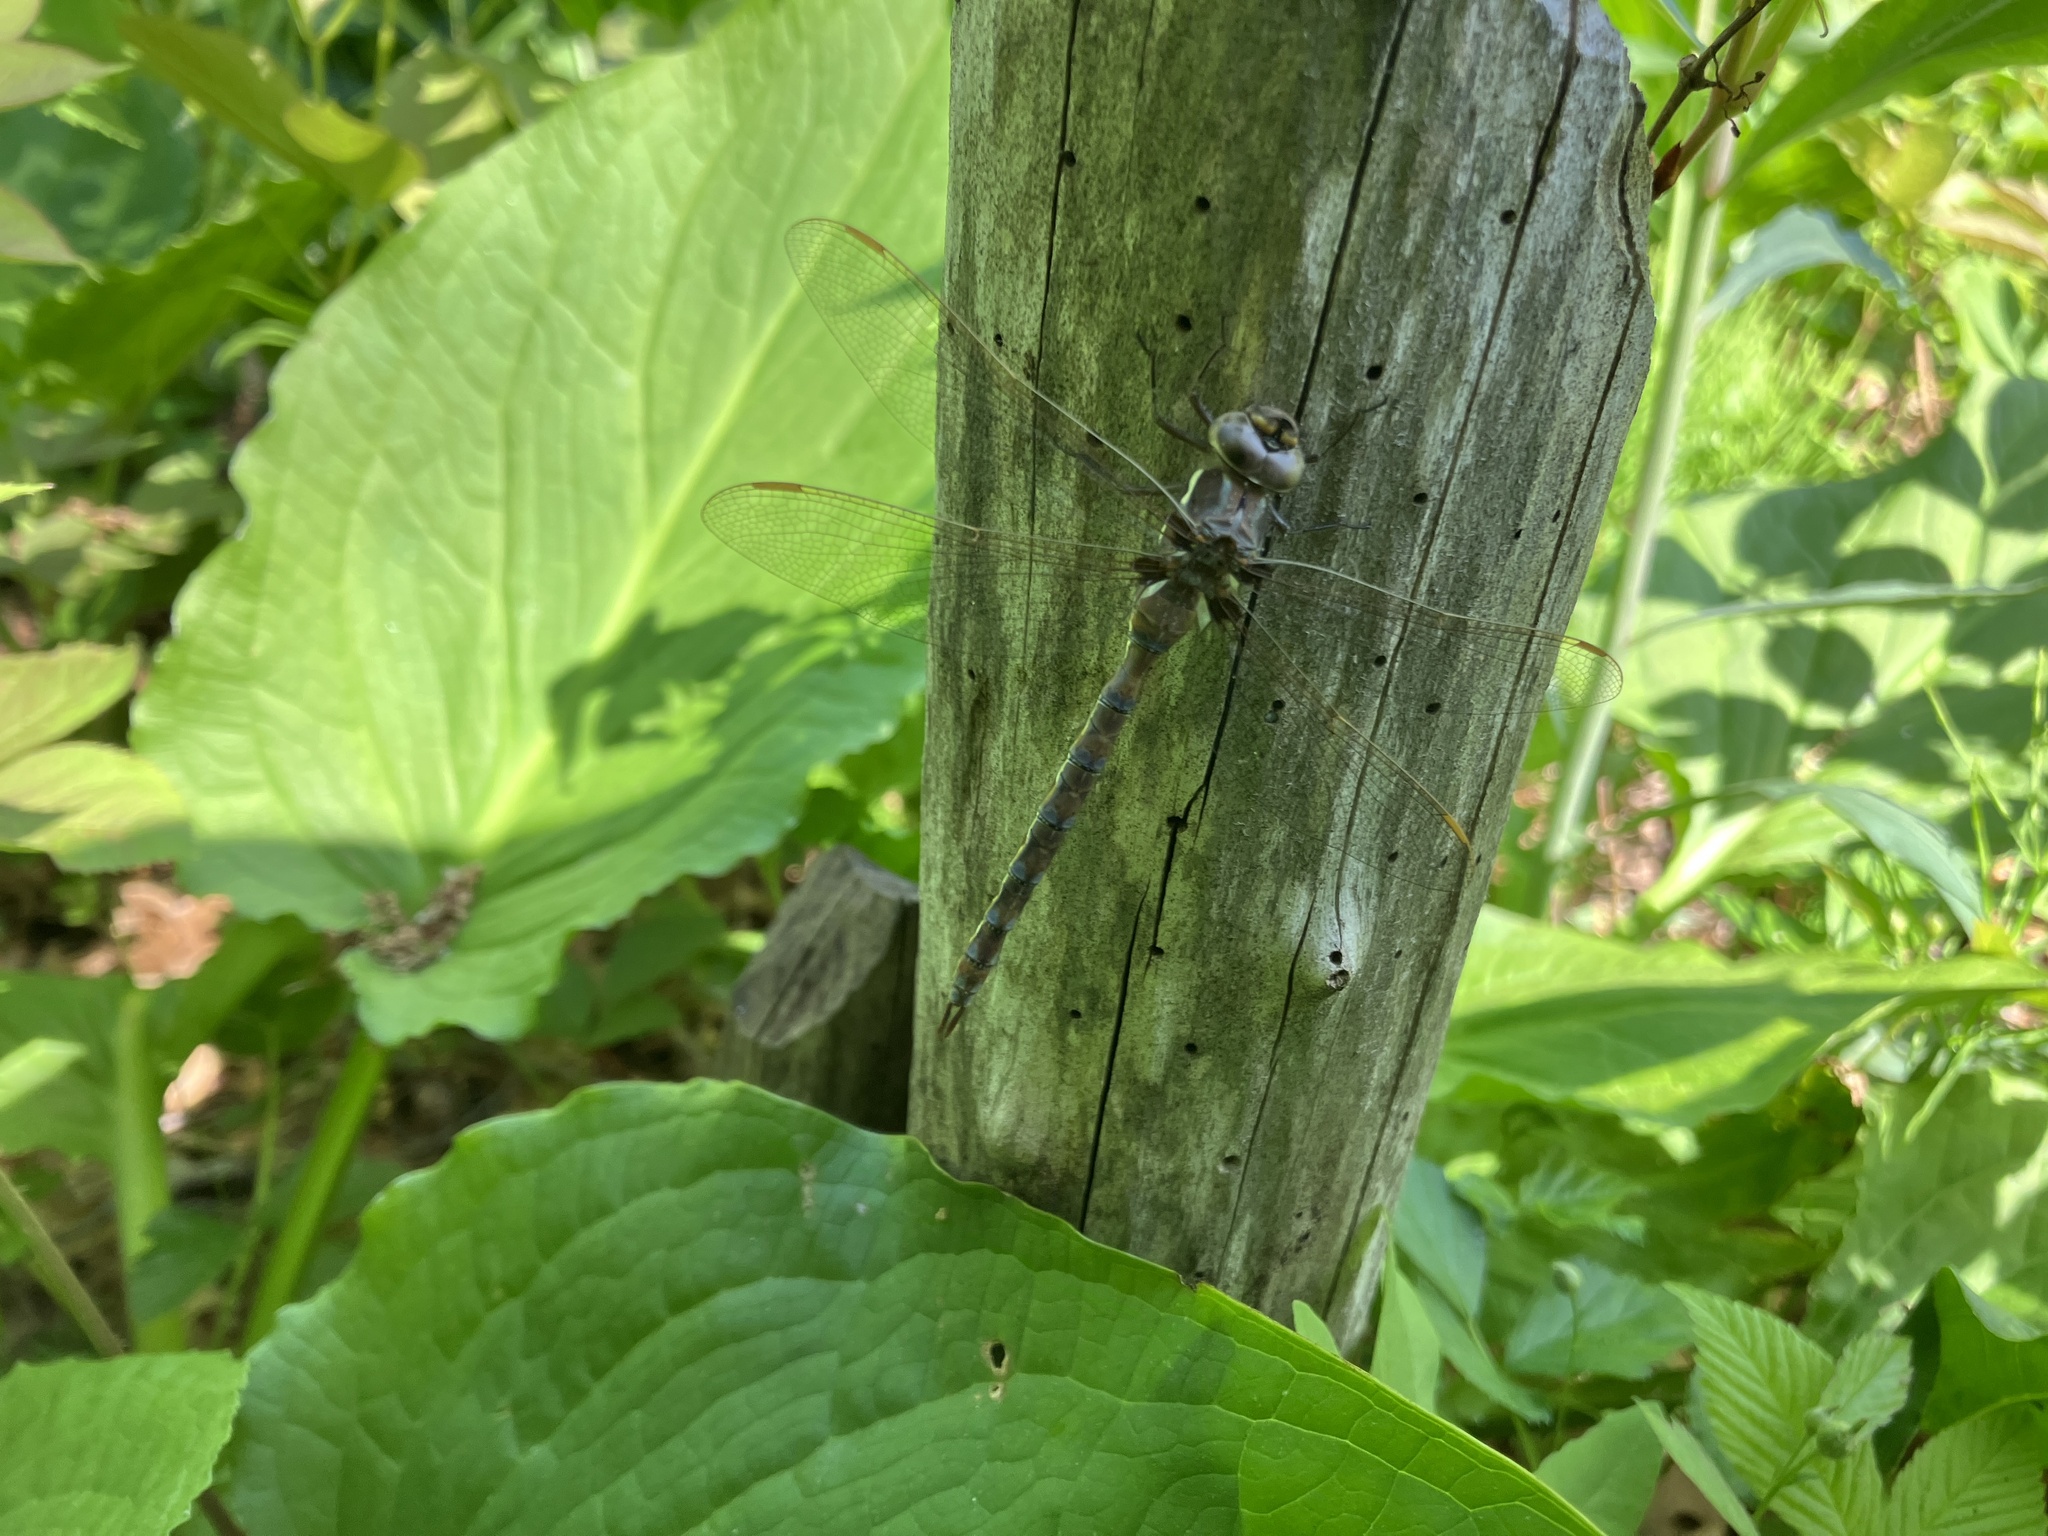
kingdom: Animalia
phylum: Arthropoda
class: Insecta
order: Odonata
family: Aeshnidae
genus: Basiaeschna
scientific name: Basiaeschna janata
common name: Springtime darner
